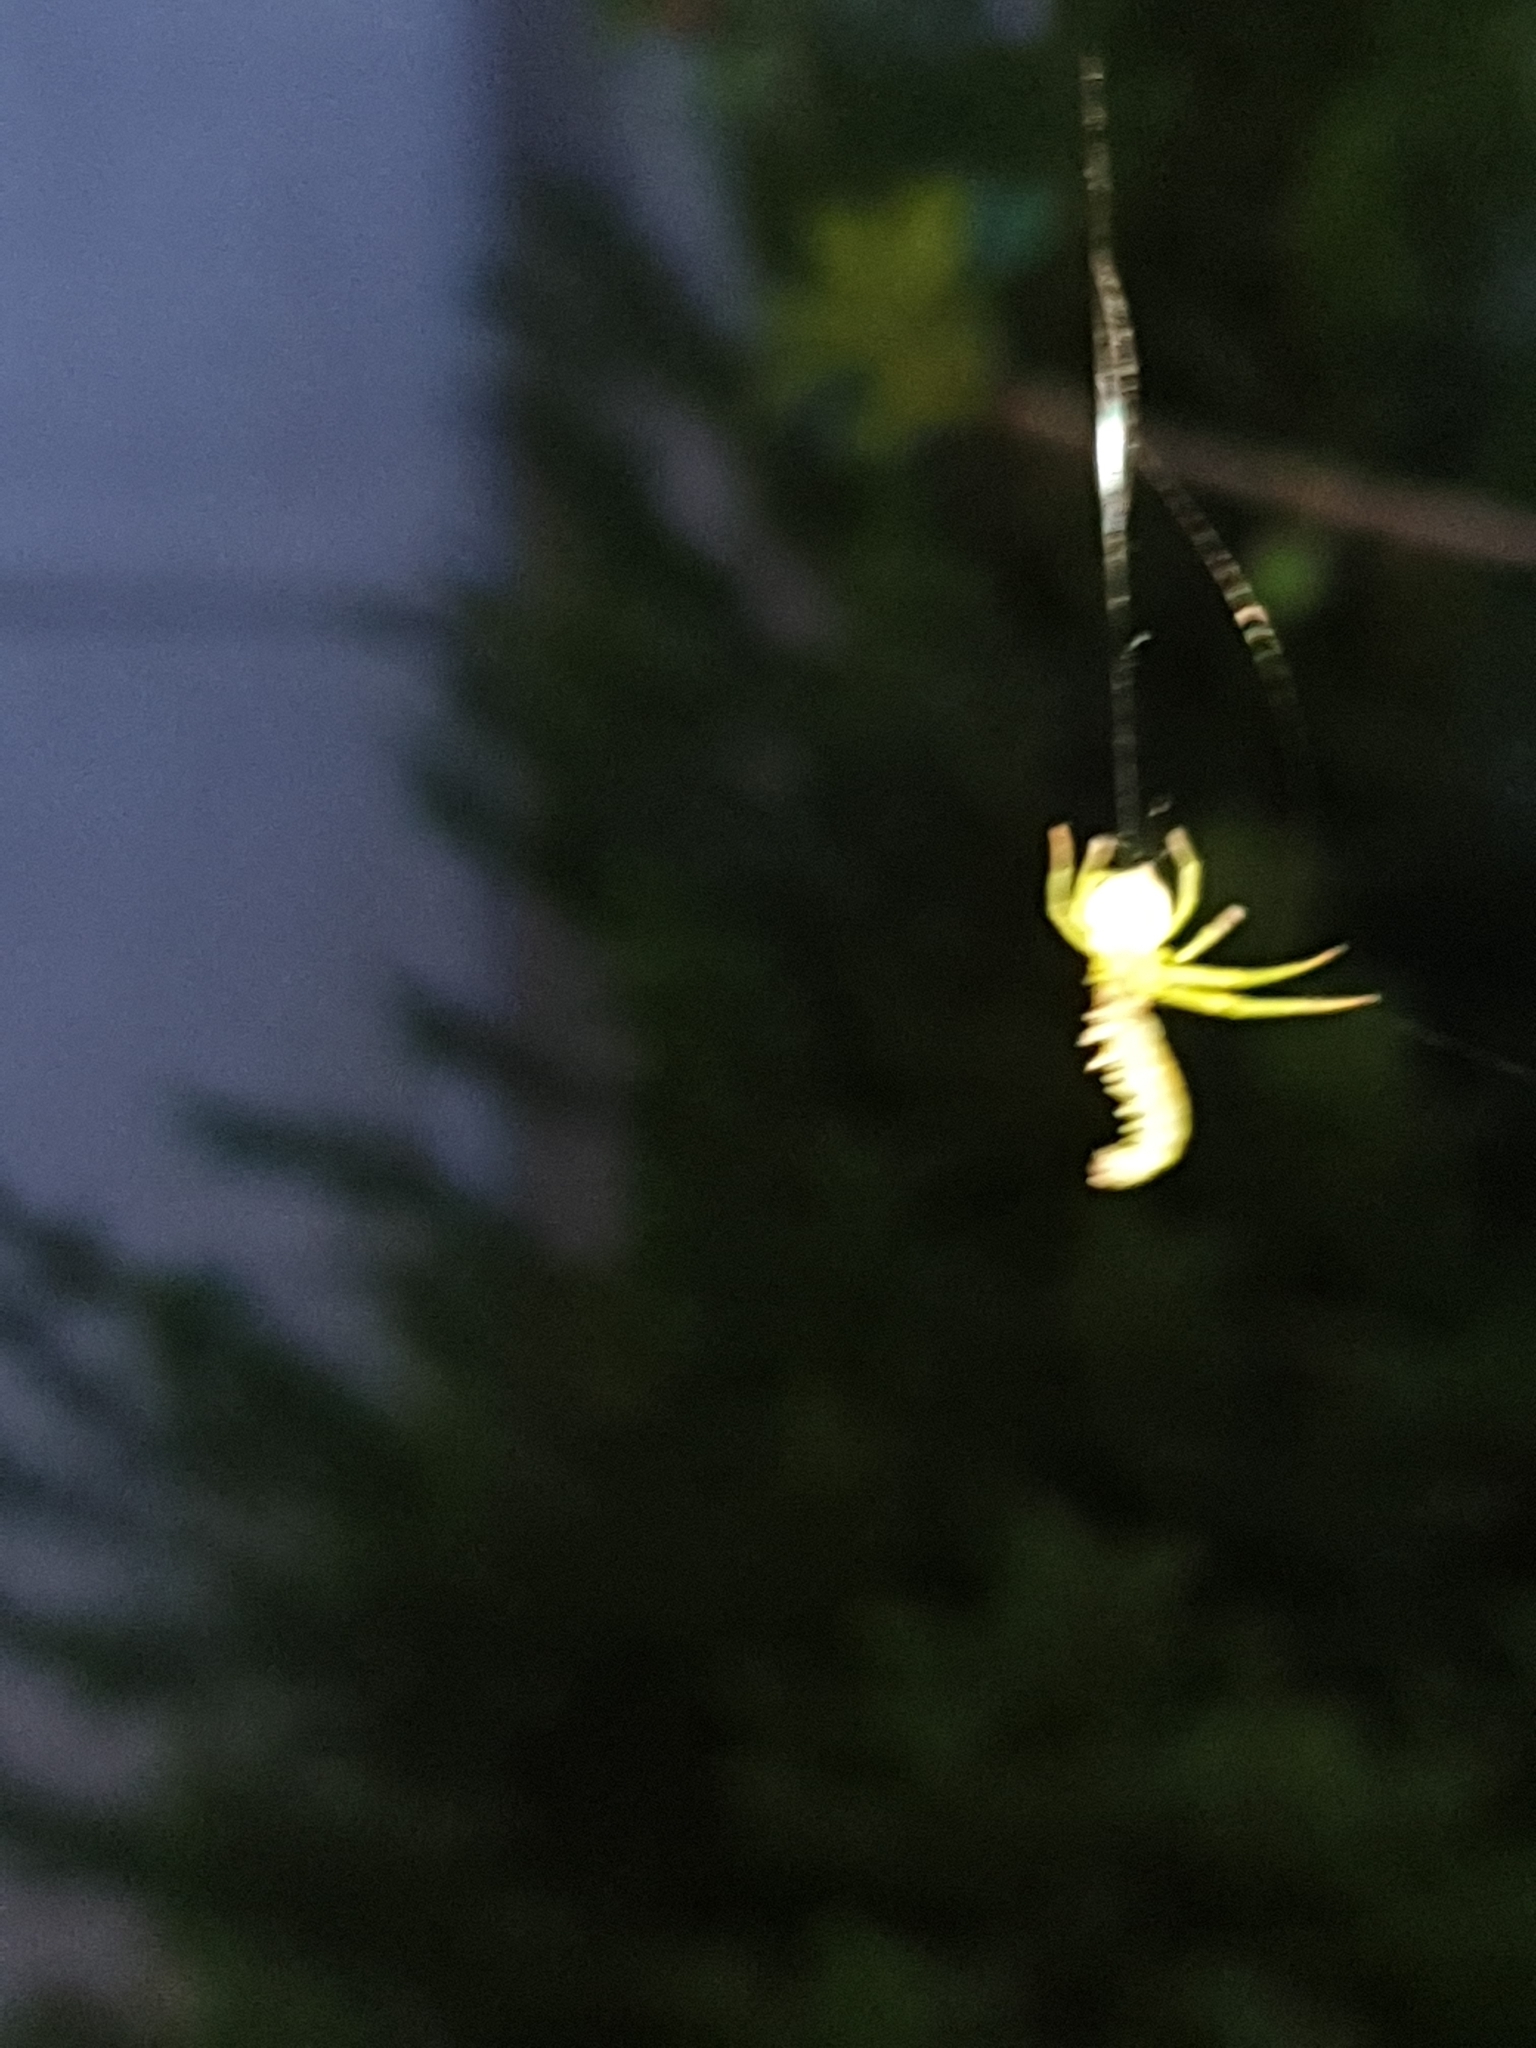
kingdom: Animalia
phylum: Arthropoda
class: Arachnida
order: Araneae
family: Thomisidae
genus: Diaea
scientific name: Diaea dorsata
